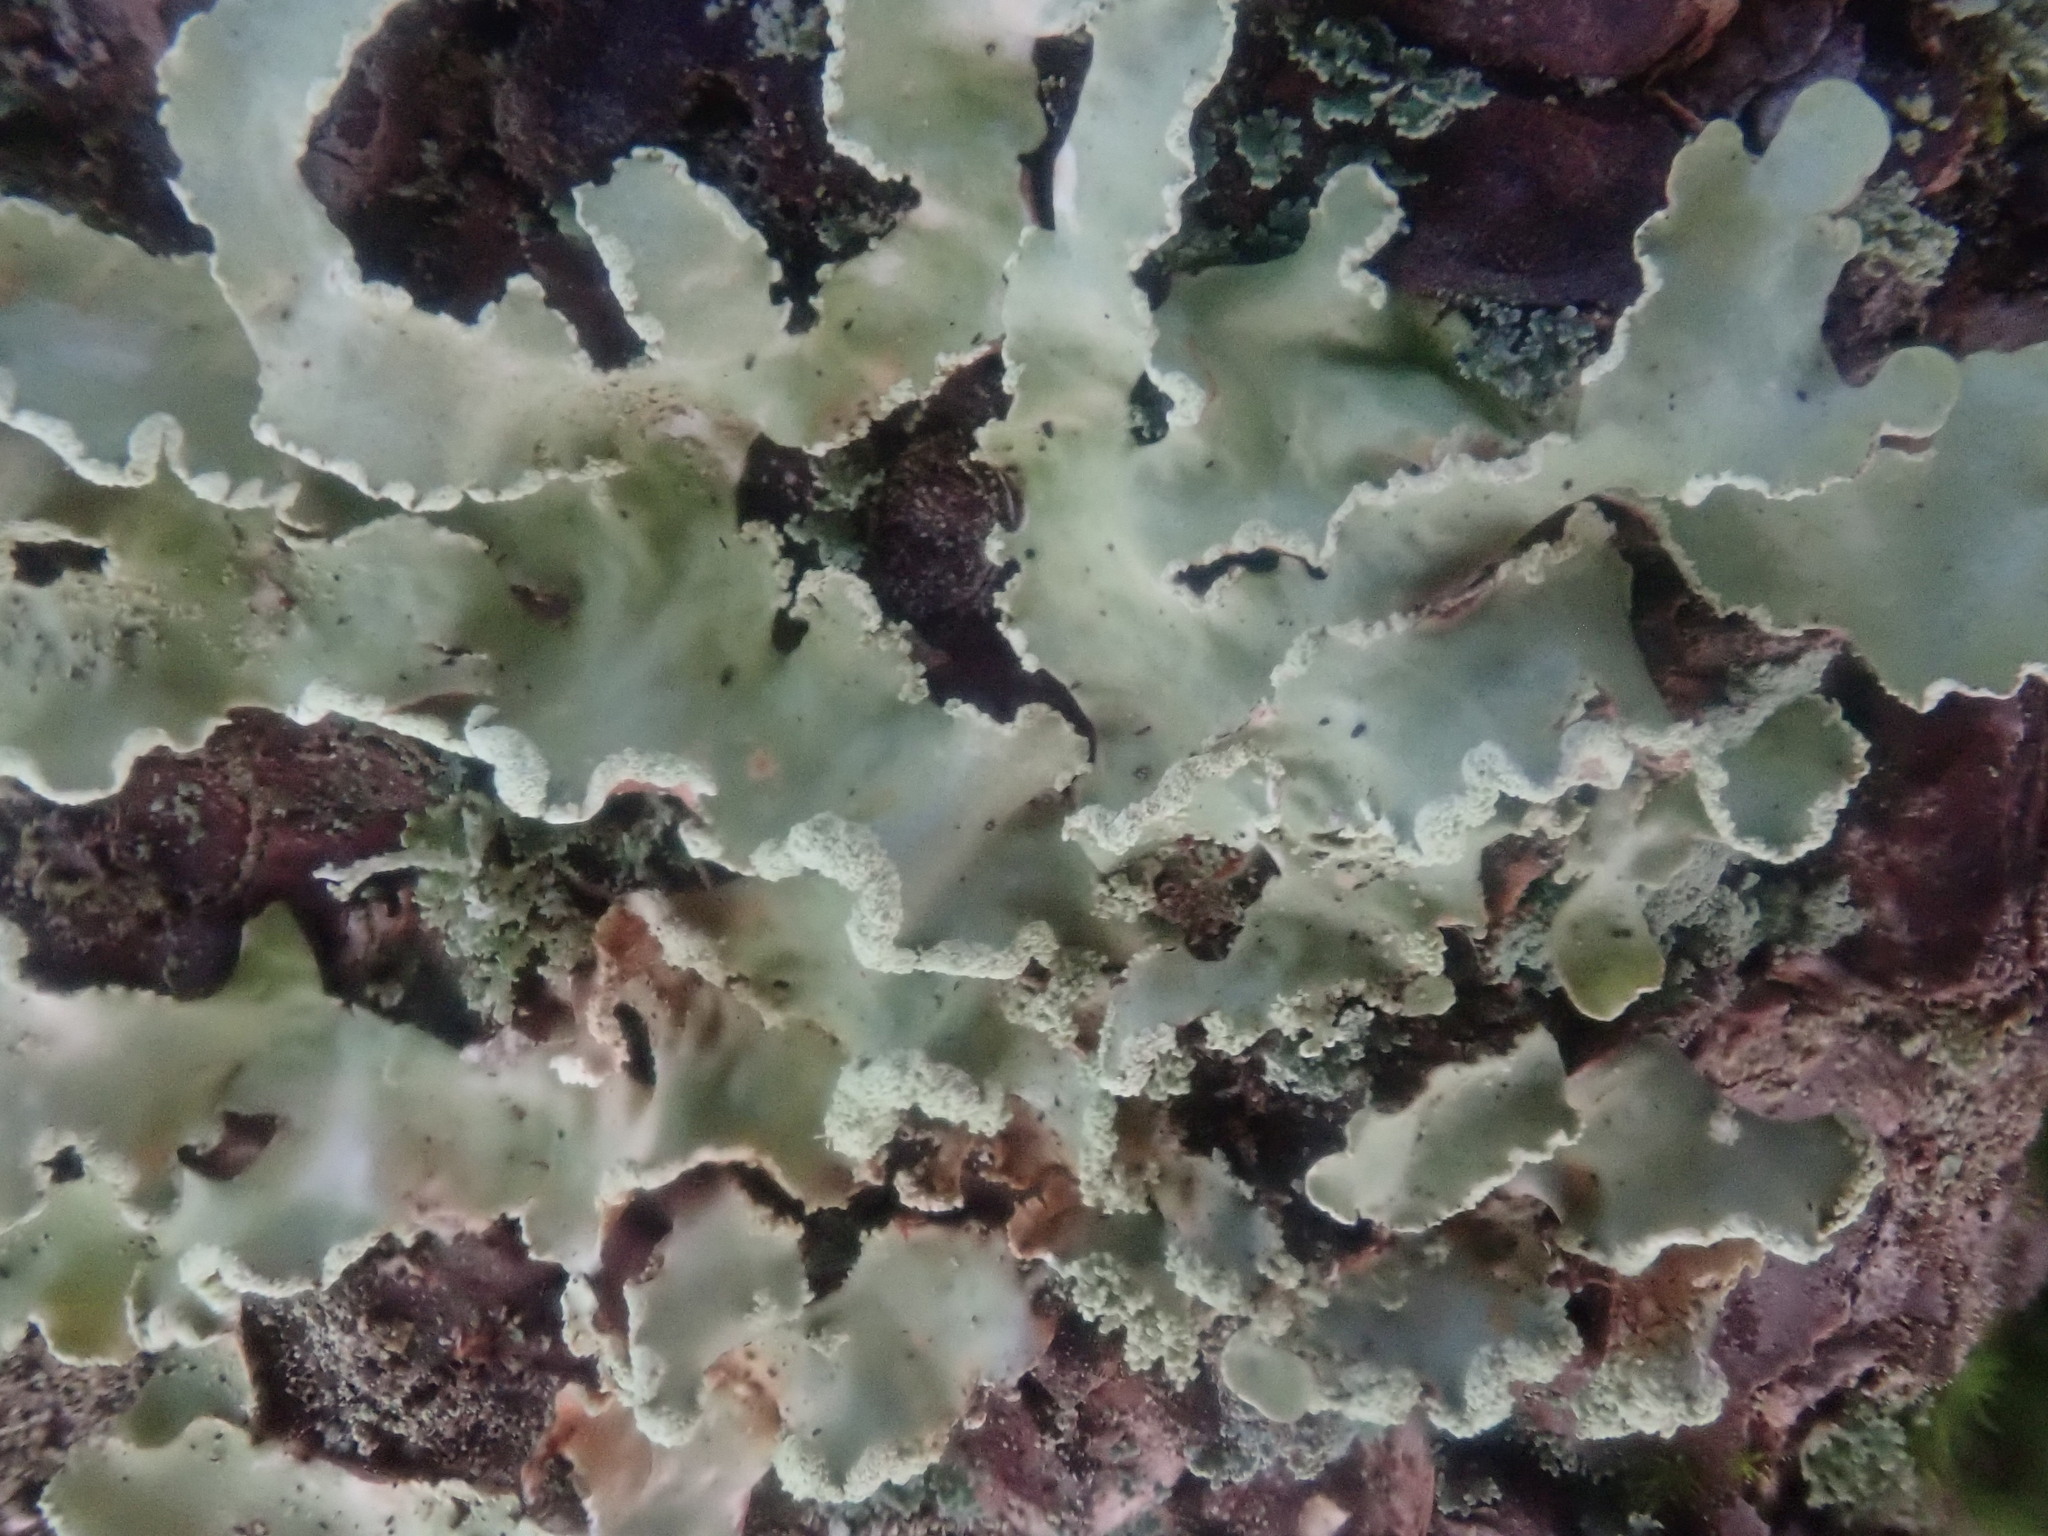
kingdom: Fungi
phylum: Ascomycota
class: Lecanoromycetes
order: Lecanorales
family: Parmeliaceae
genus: Usnocetraria
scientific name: Usnocetraria oakesiana
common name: Yellow ribbon lichen
